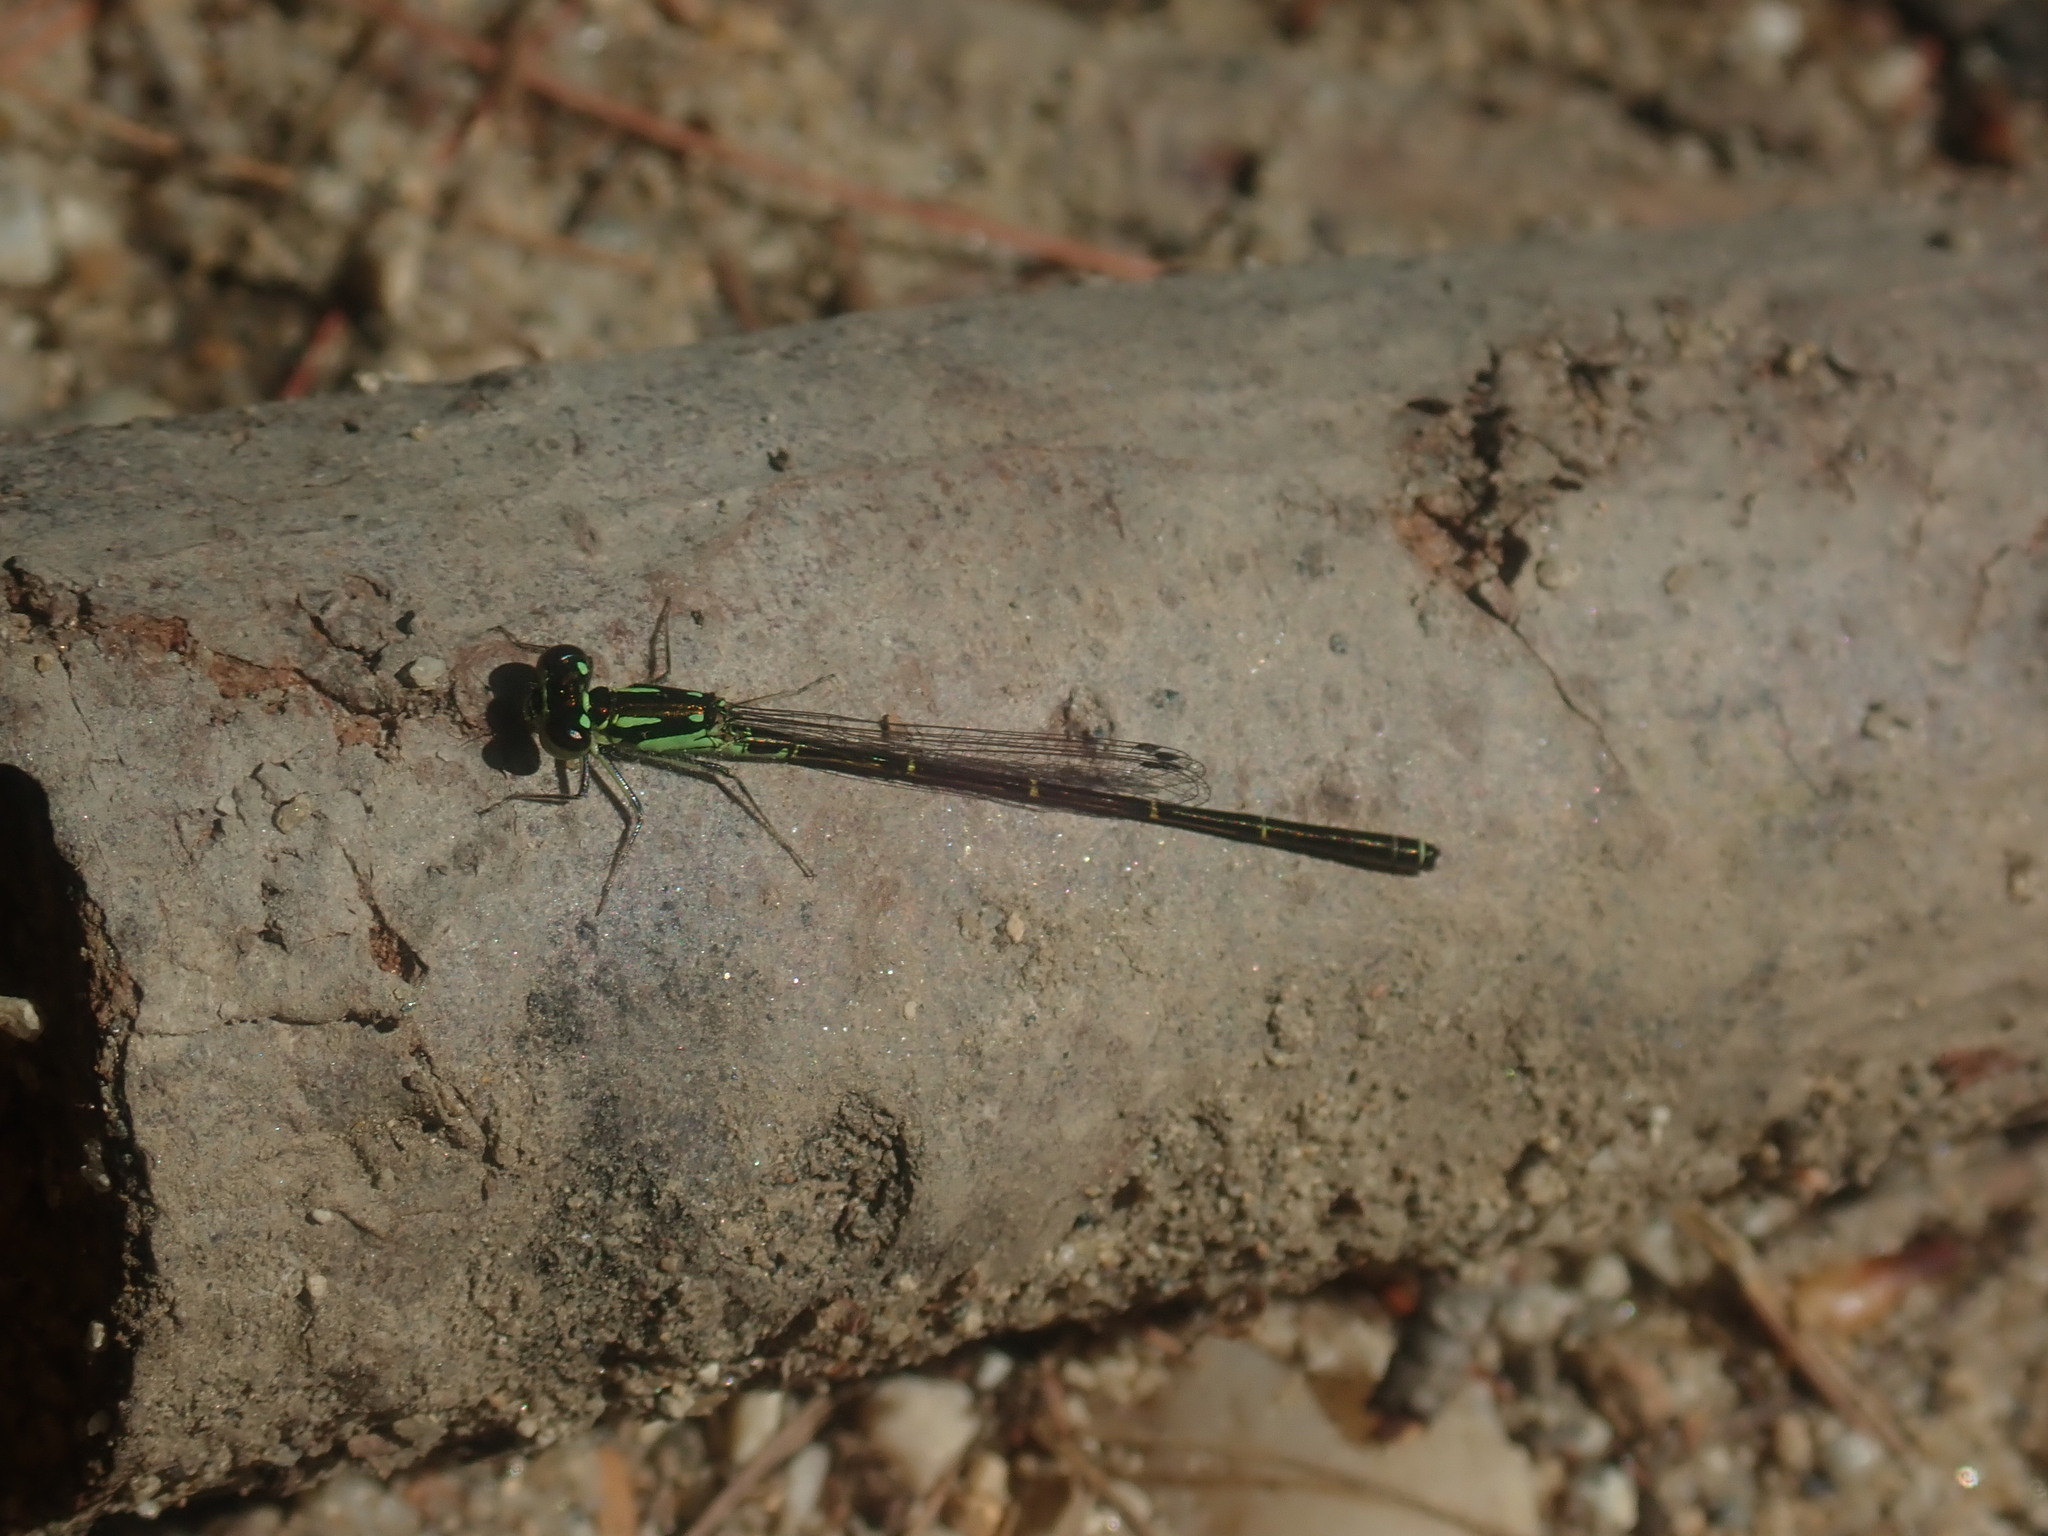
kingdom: Animalia
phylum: Arthropoda
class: Insecta
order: Odonata
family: Coenagrionidae
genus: Ischnura
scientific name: Ischnura posita
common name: Fragile forktail
